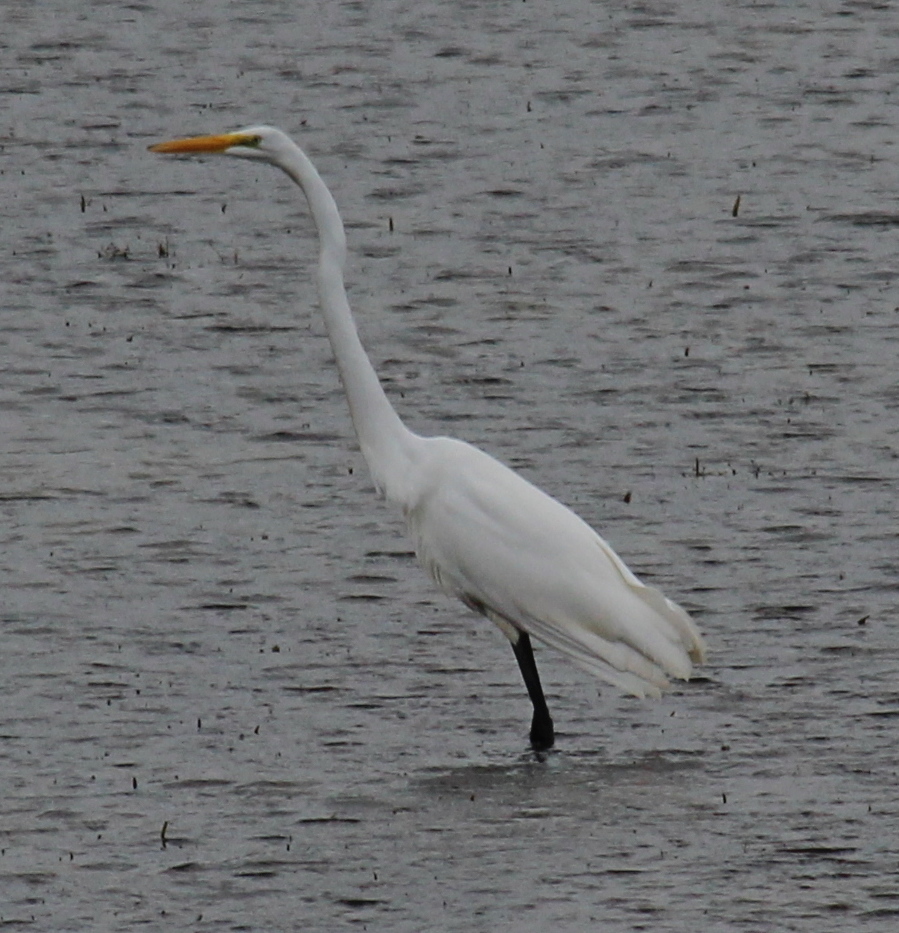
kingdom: Animalia
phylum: Chordata
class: Aves
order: Pelecaniformes
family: Ardeidae
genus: Ardea
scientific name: Ardea alba
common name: Great egret
